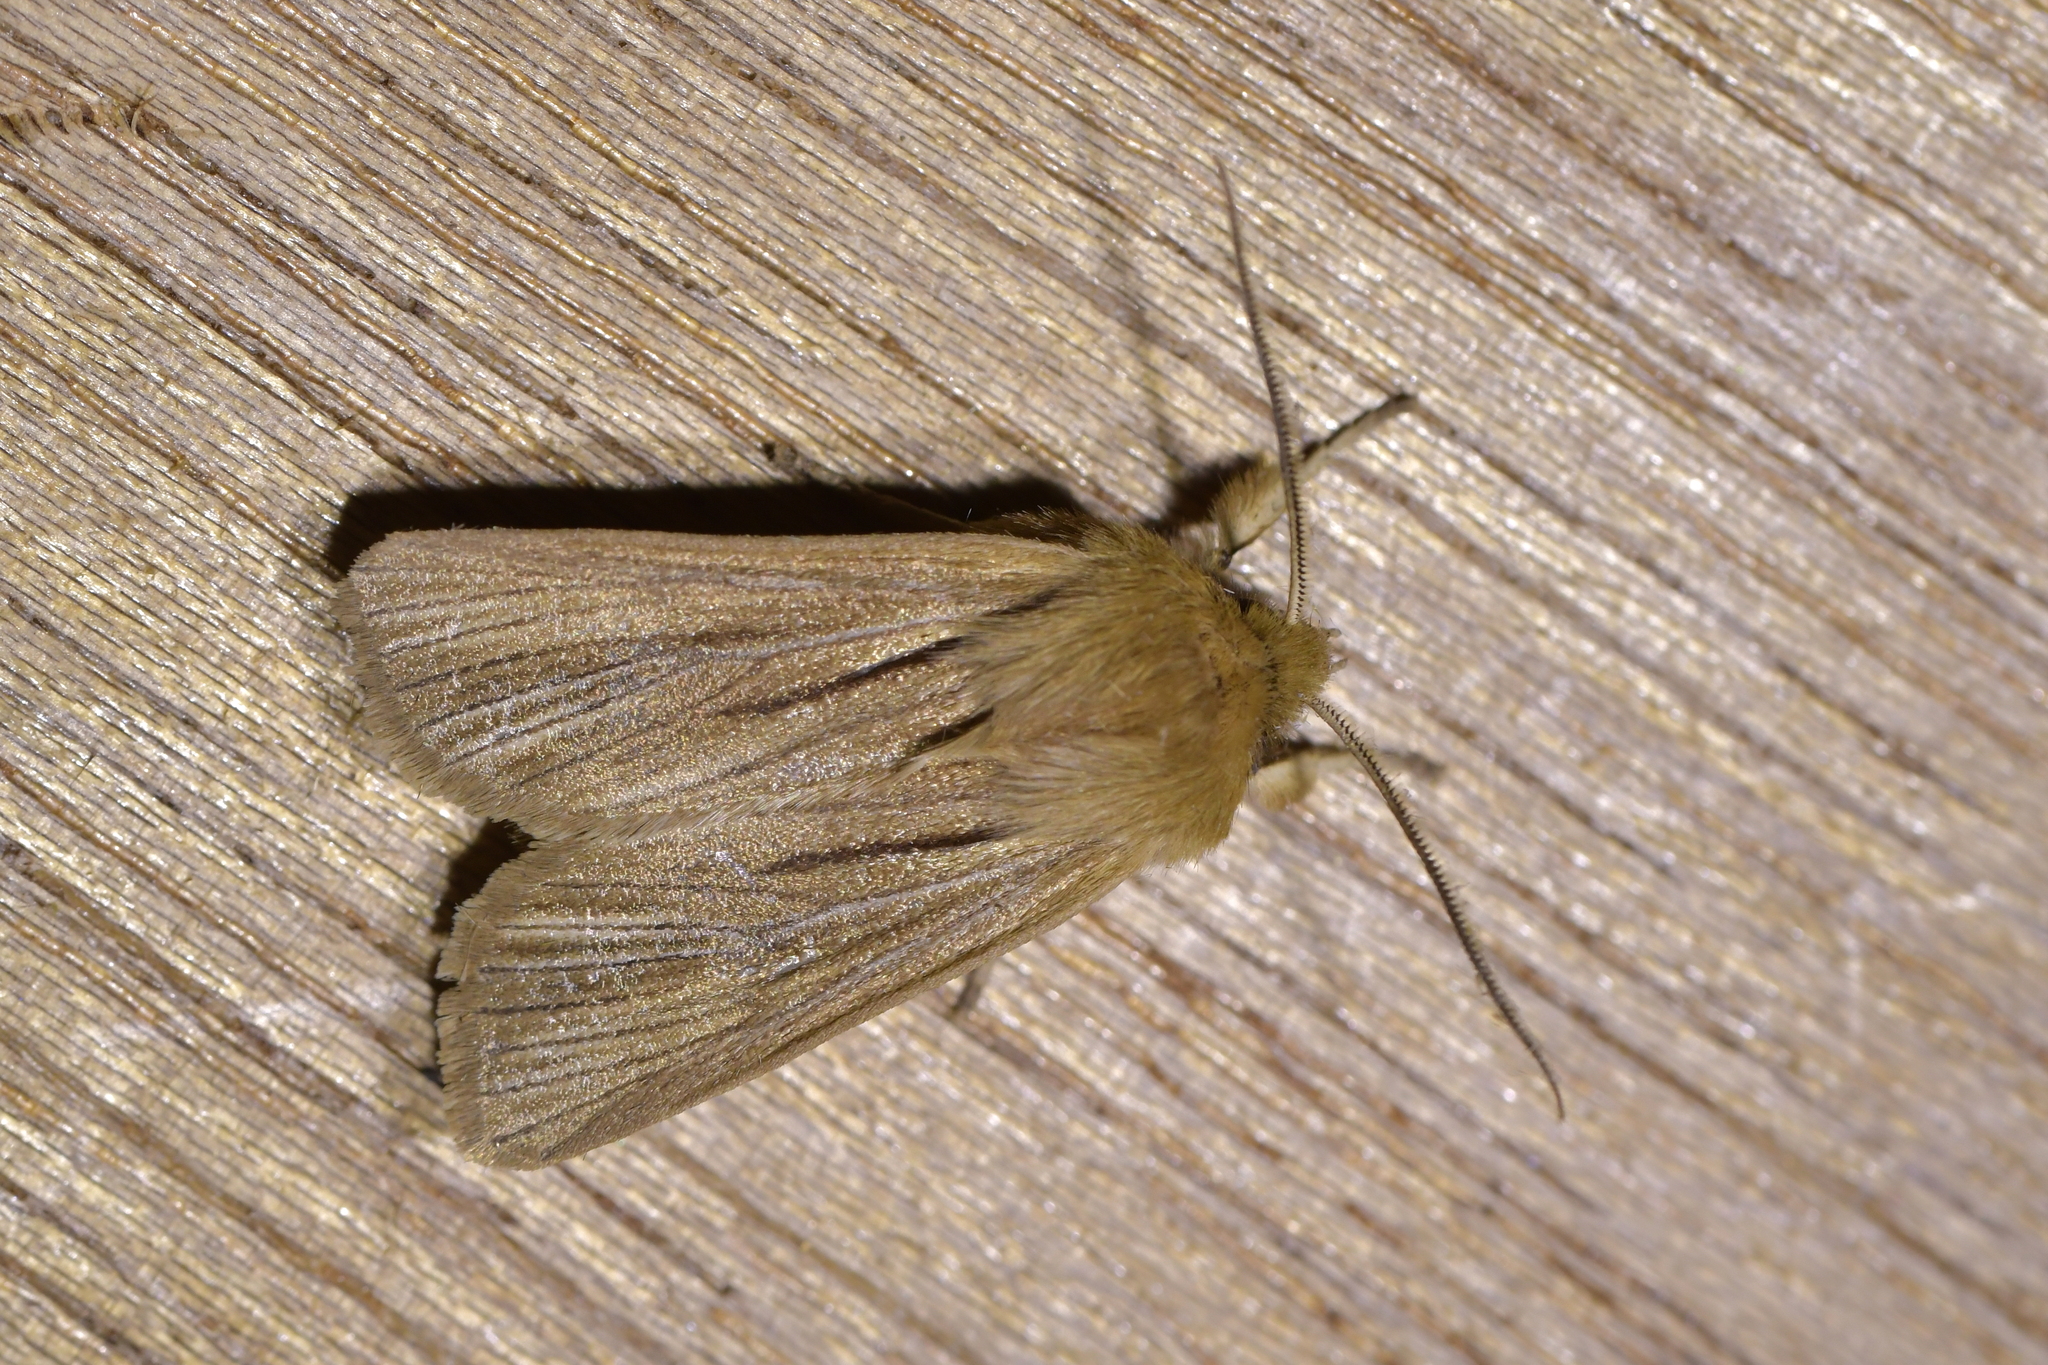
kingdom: Animalia
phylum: Arthropoda
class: Insecta
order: Lepidoptera
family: Noctuidae
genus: Ichneutica
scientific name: Ichneutica
